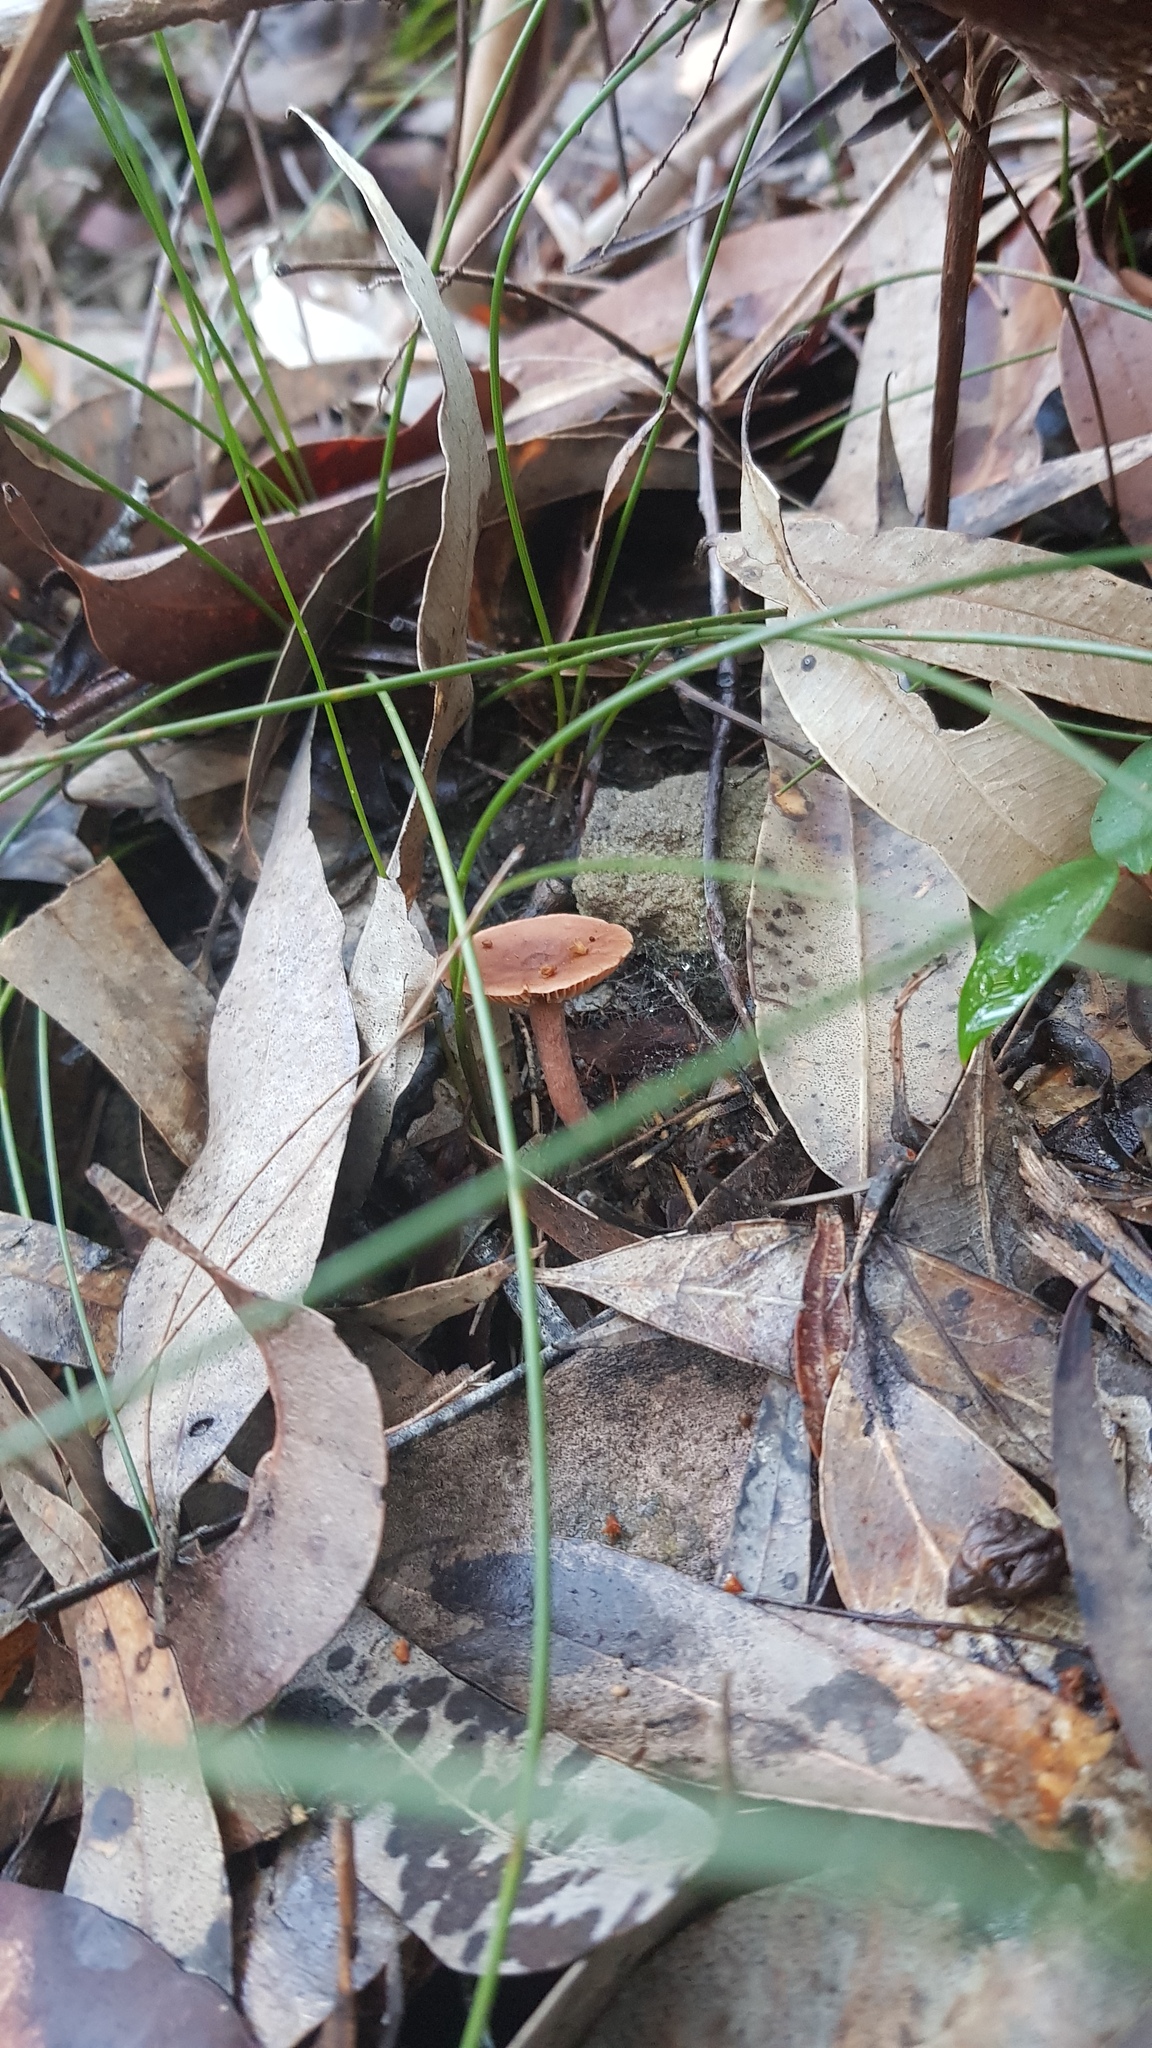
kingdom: Fungi
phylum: Basidiomycota
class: Agaricomycetes
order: Russulales
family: Russulaceae
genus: Lactarius
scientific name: Lactarius eucalypti
